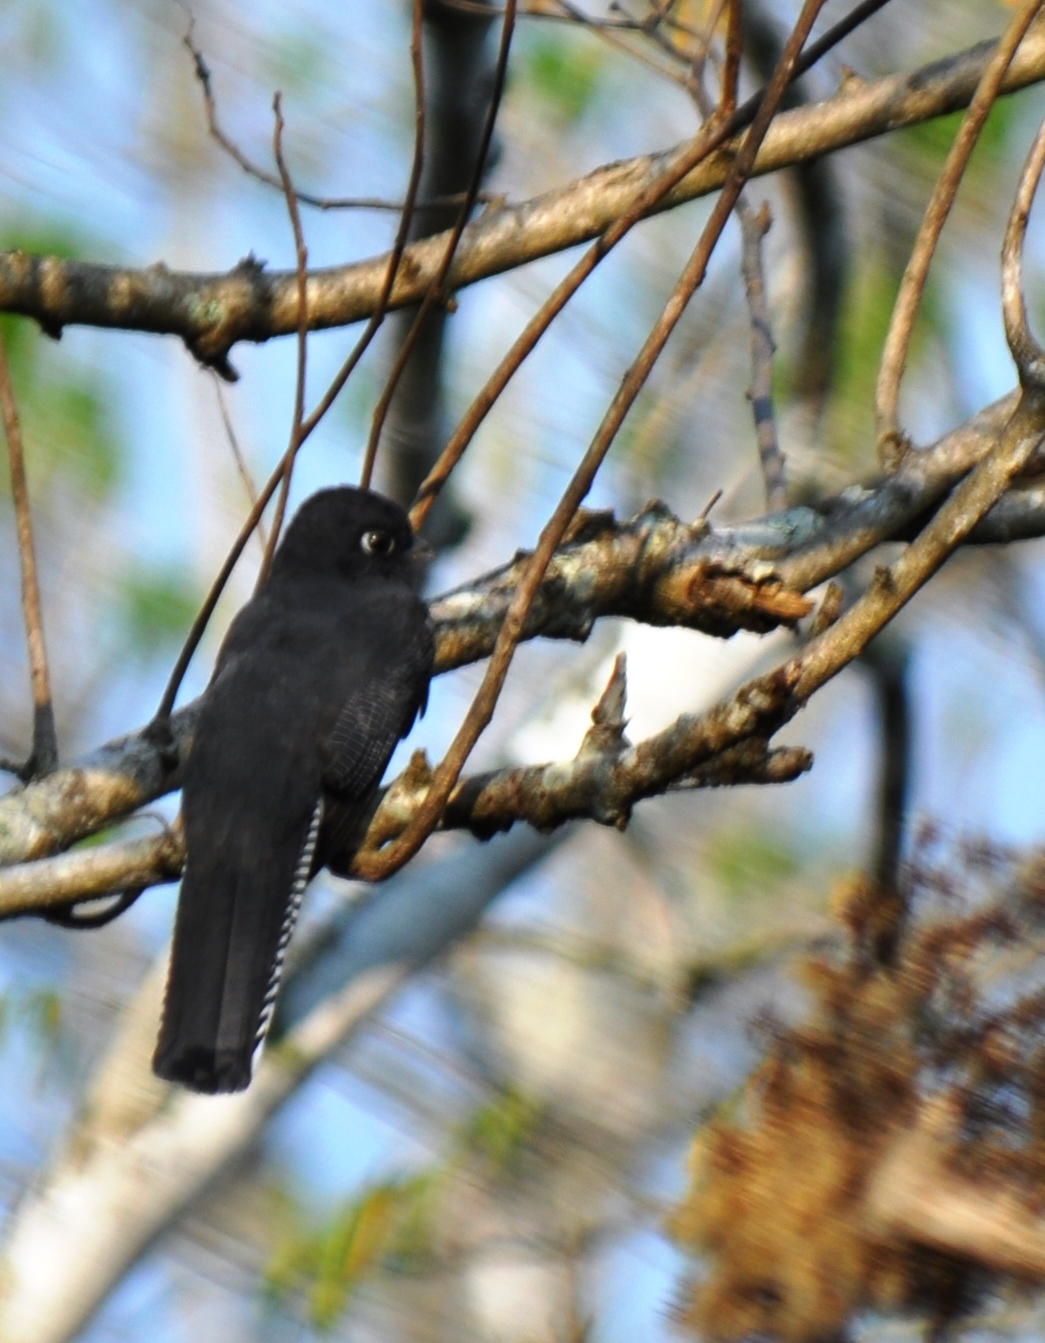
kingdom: Animalia
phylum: Chordata
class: Aves
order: Trogoniformes
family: Trogonidae
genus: Trogon
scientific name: Trogon caligatus
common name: Gartered trogon
